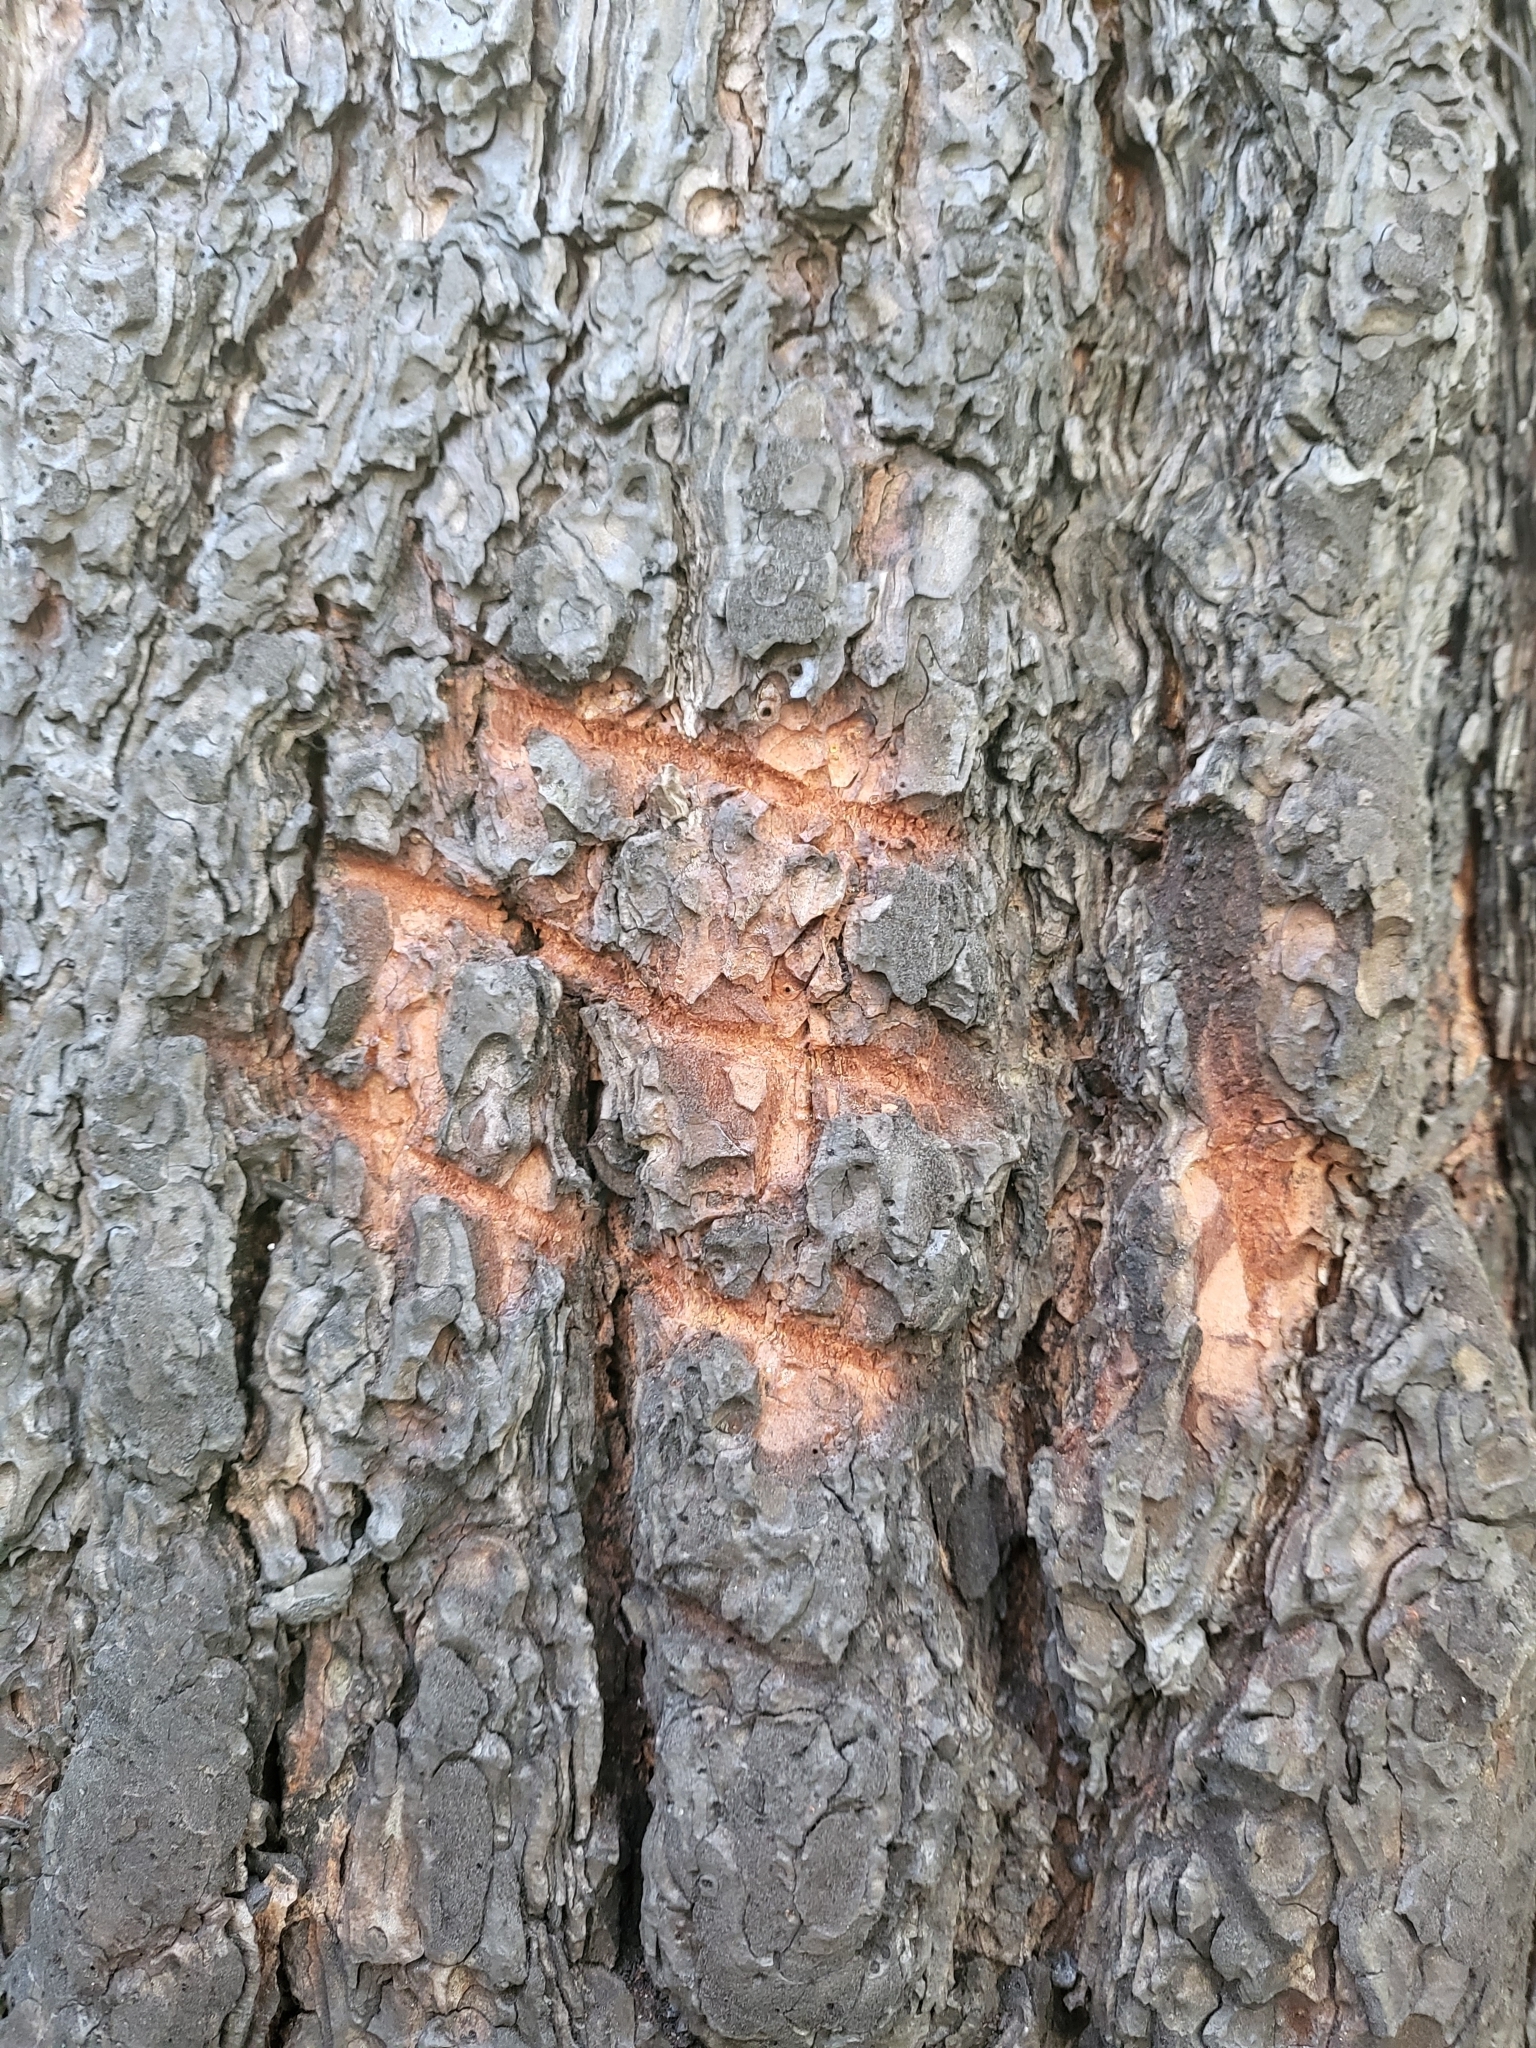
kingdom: Animalia
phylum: Chordata
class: Mammalia
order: Carnivora
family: Ursidae
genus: Ursus
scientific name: Ursus americanus
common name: American black bear
